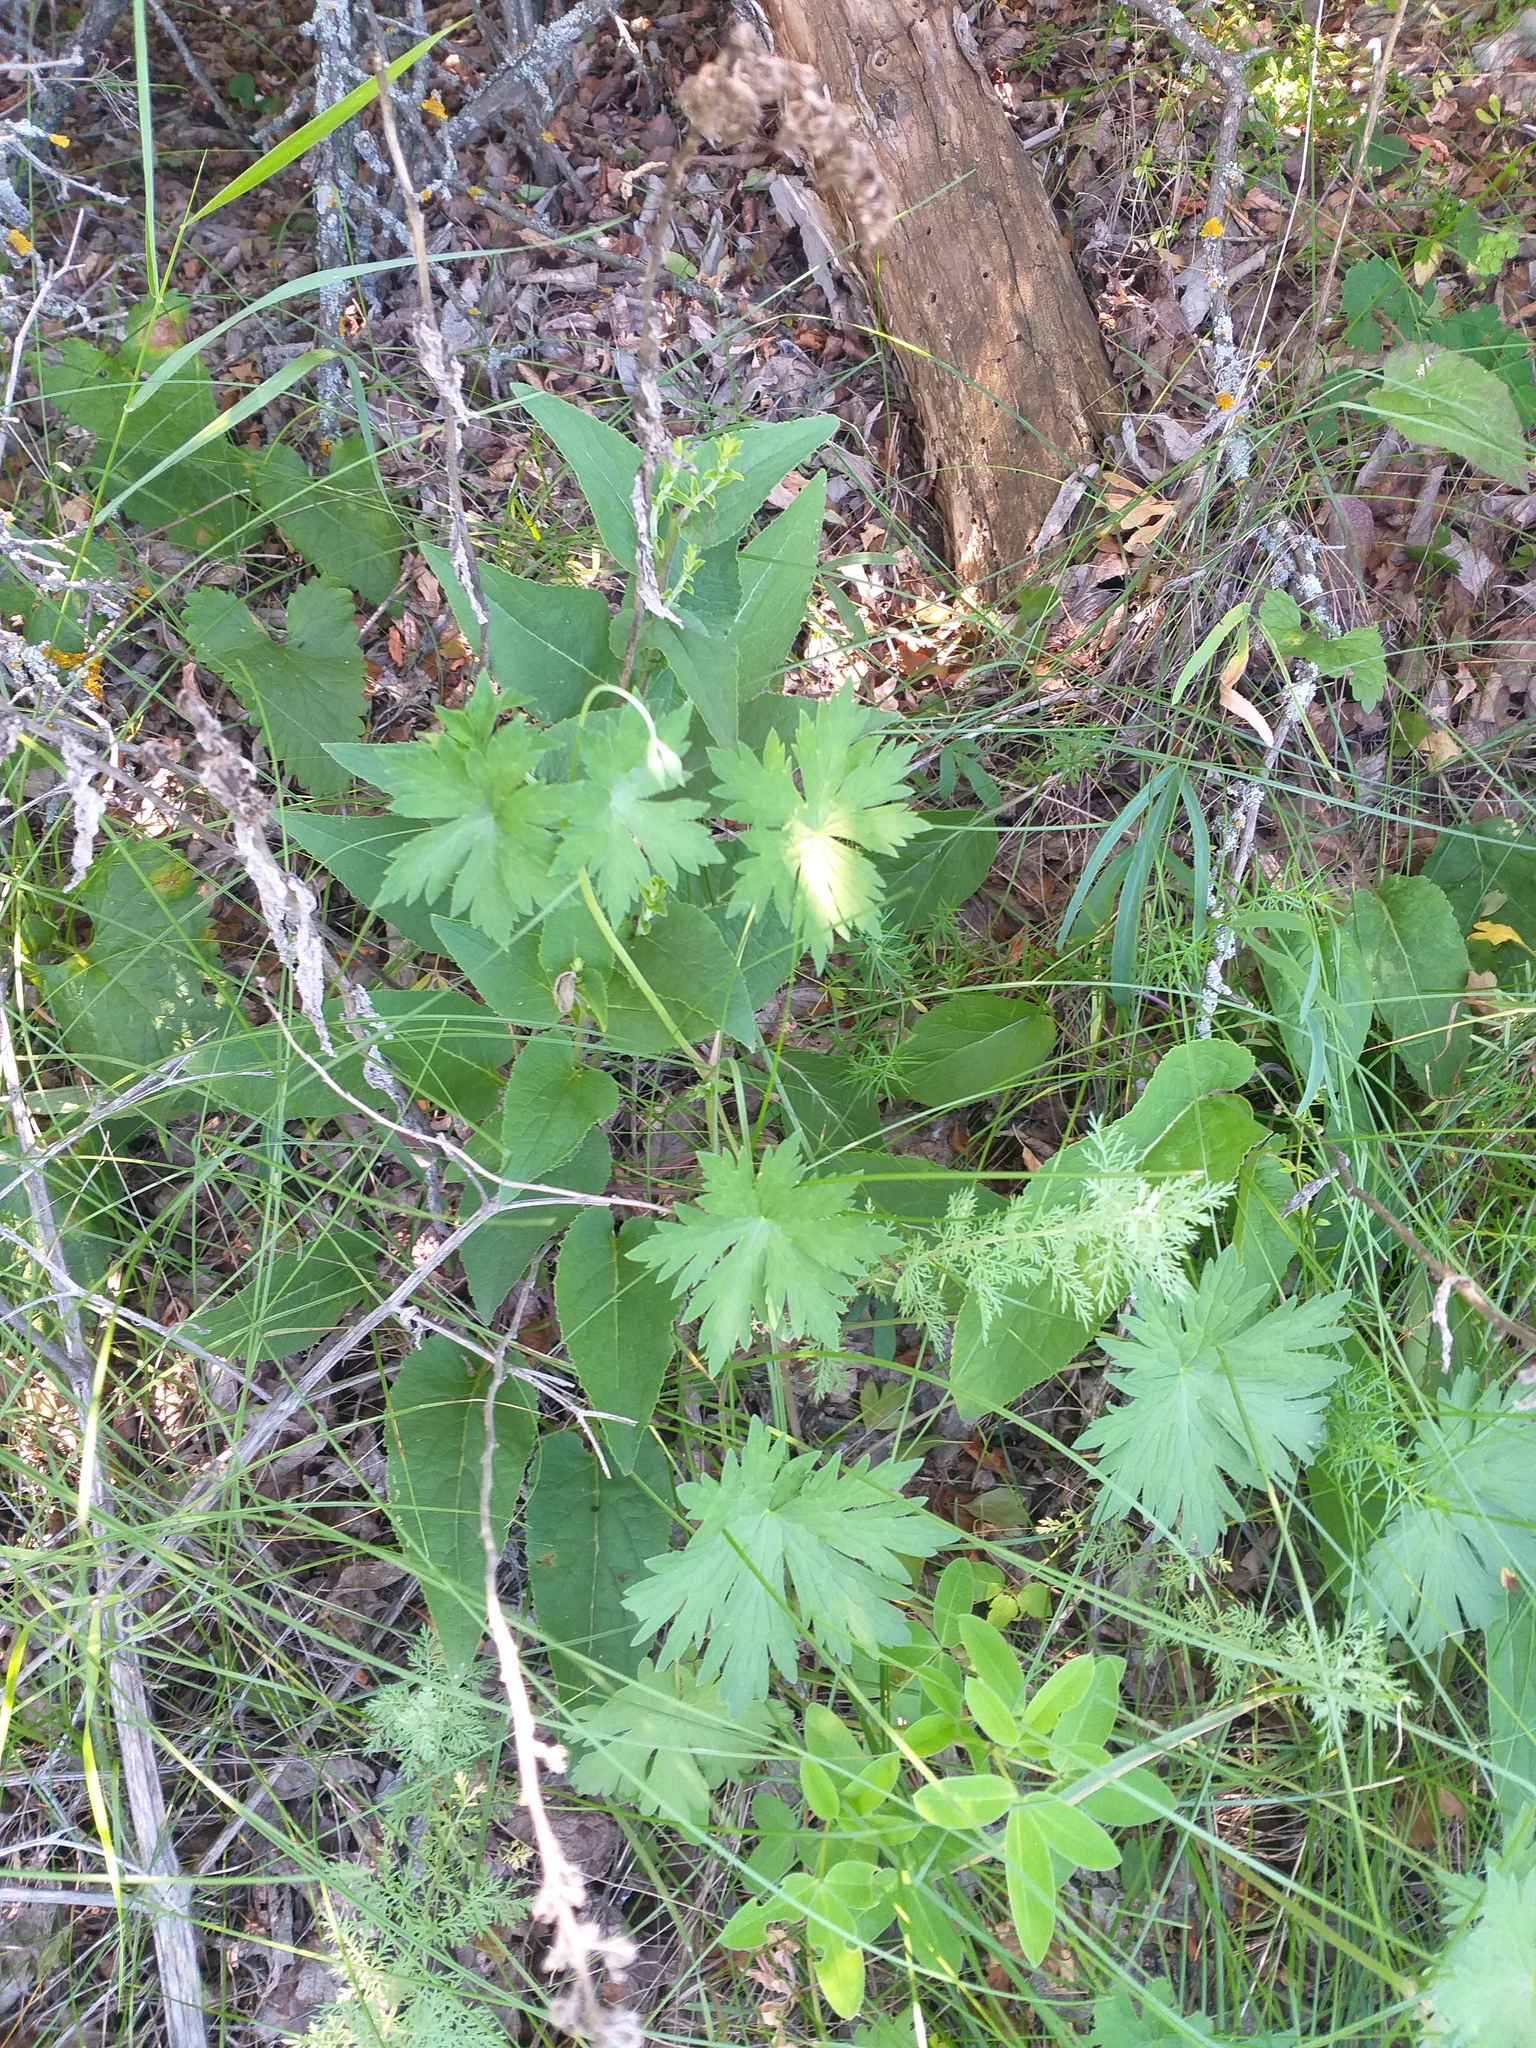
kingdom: Plantae
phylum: Tracheophyta
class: Magnoliopsida
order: Geraniales
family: Geraniaceae
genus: Geranium
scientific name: Geranium collinum
